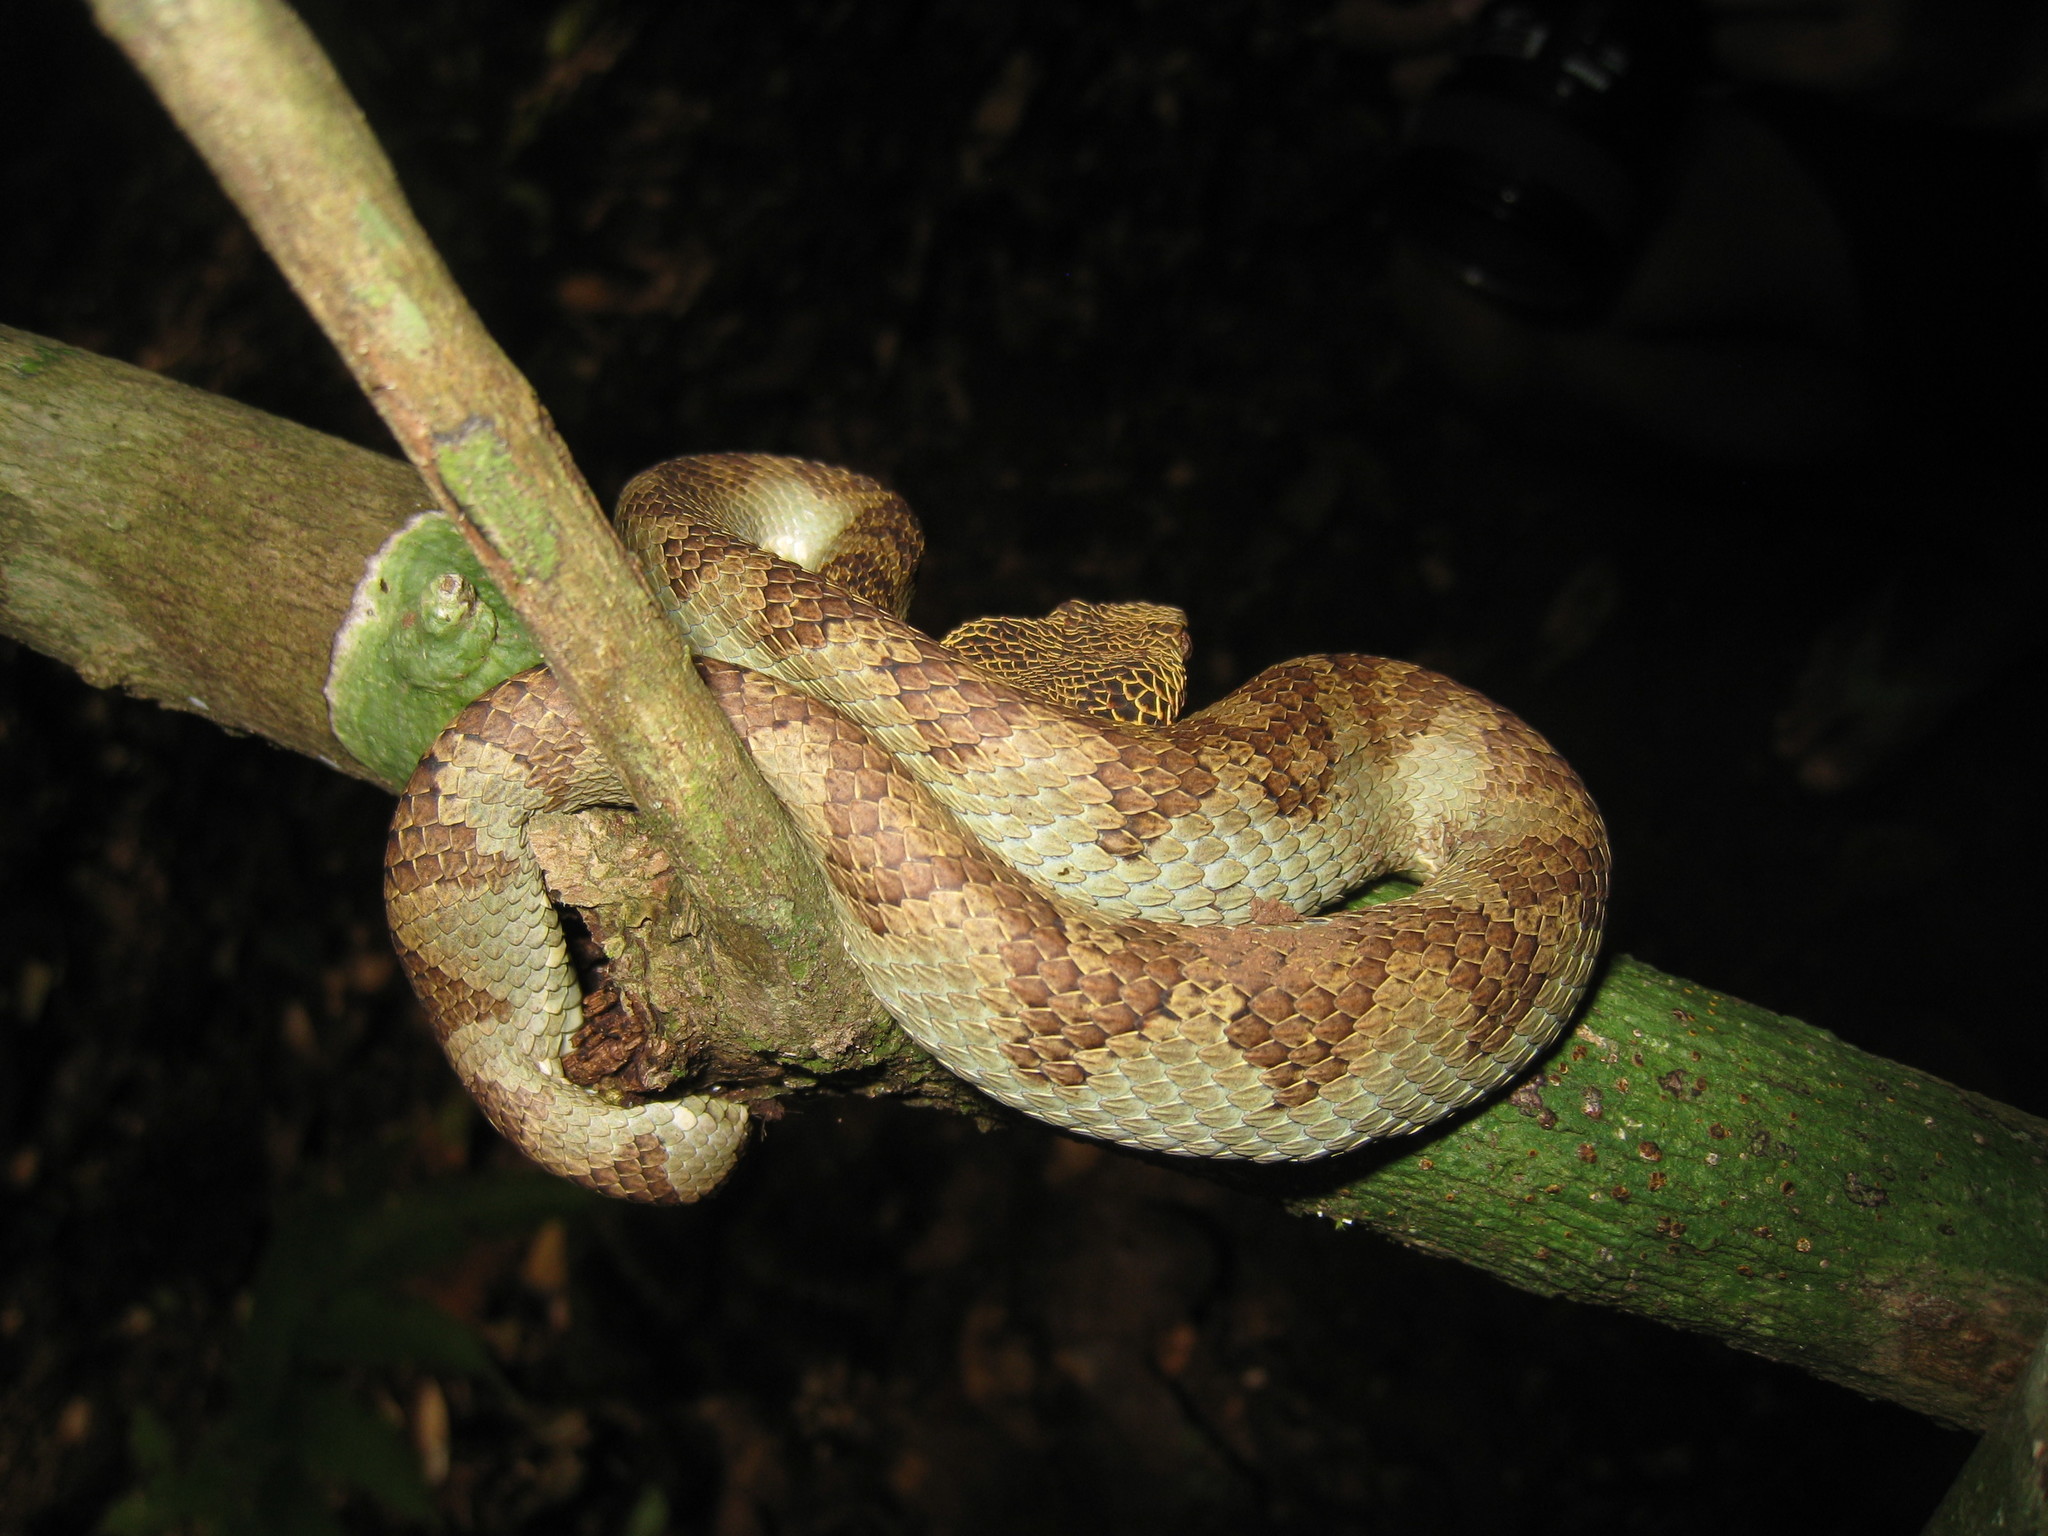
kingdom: Animalia
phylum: Chordata
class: Squamata
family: Viperidae
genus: Craspedocephalus
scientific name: Craspedocephalus anamallensis
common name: Malabarian pit viper
